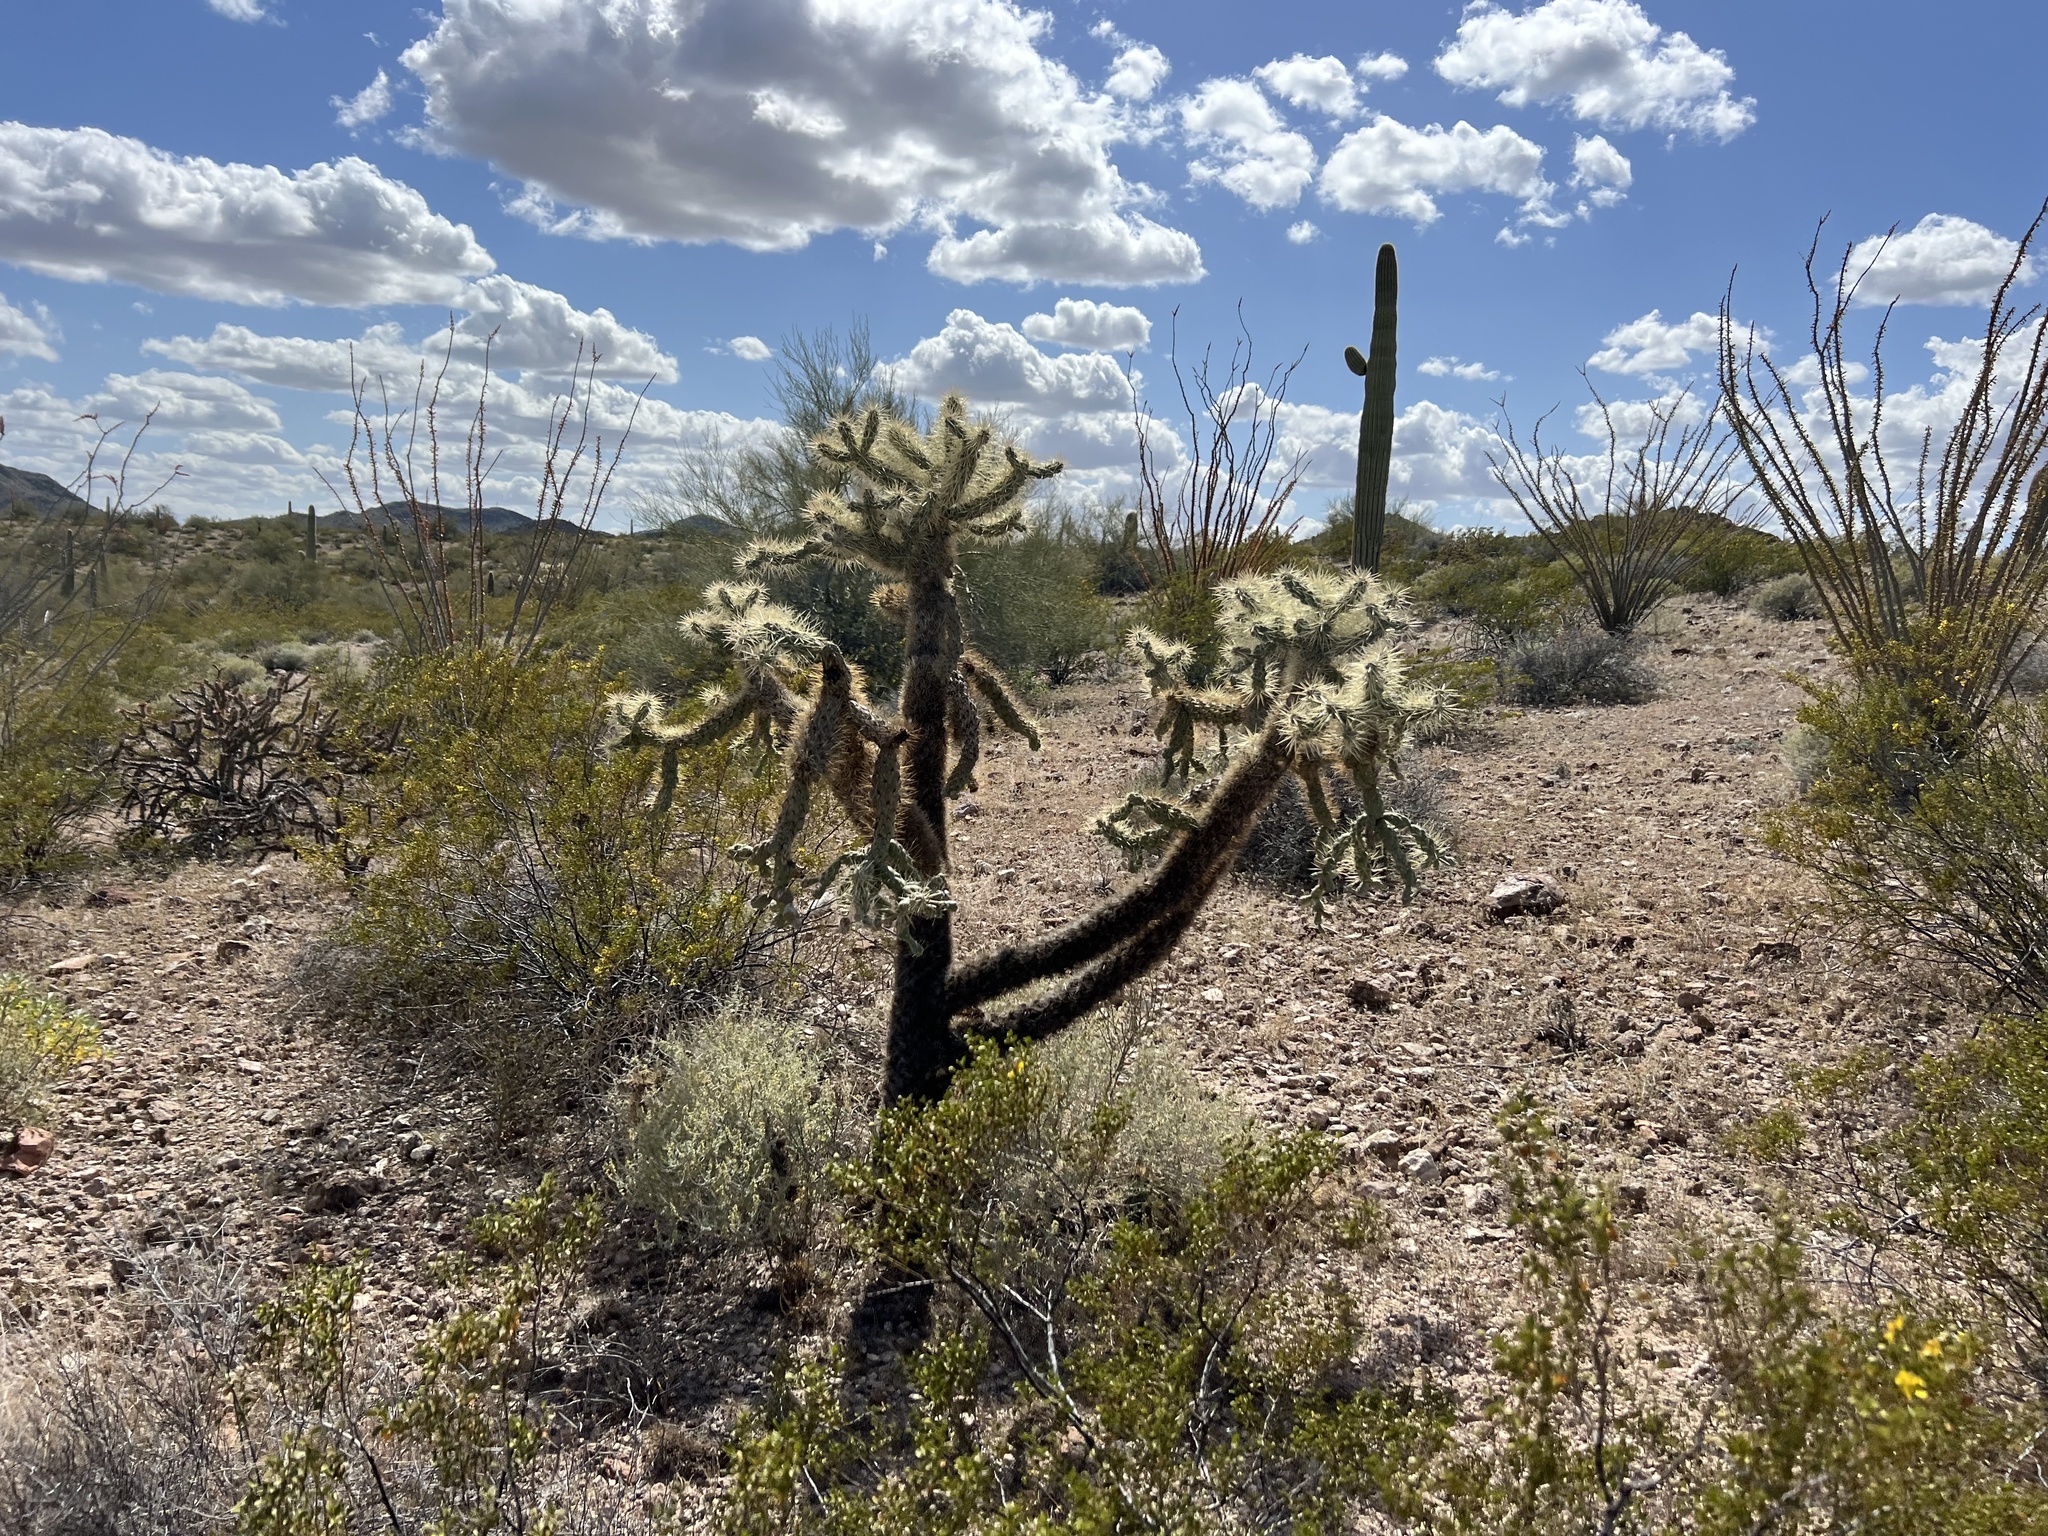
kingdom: Plantae
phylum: Tracheophyta
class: Magnoliopsida
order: Caryophyllales
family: Cactaceae
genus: Cylindropuntia
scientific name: Cylindropuntia fulgida
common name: Jumping cholla
